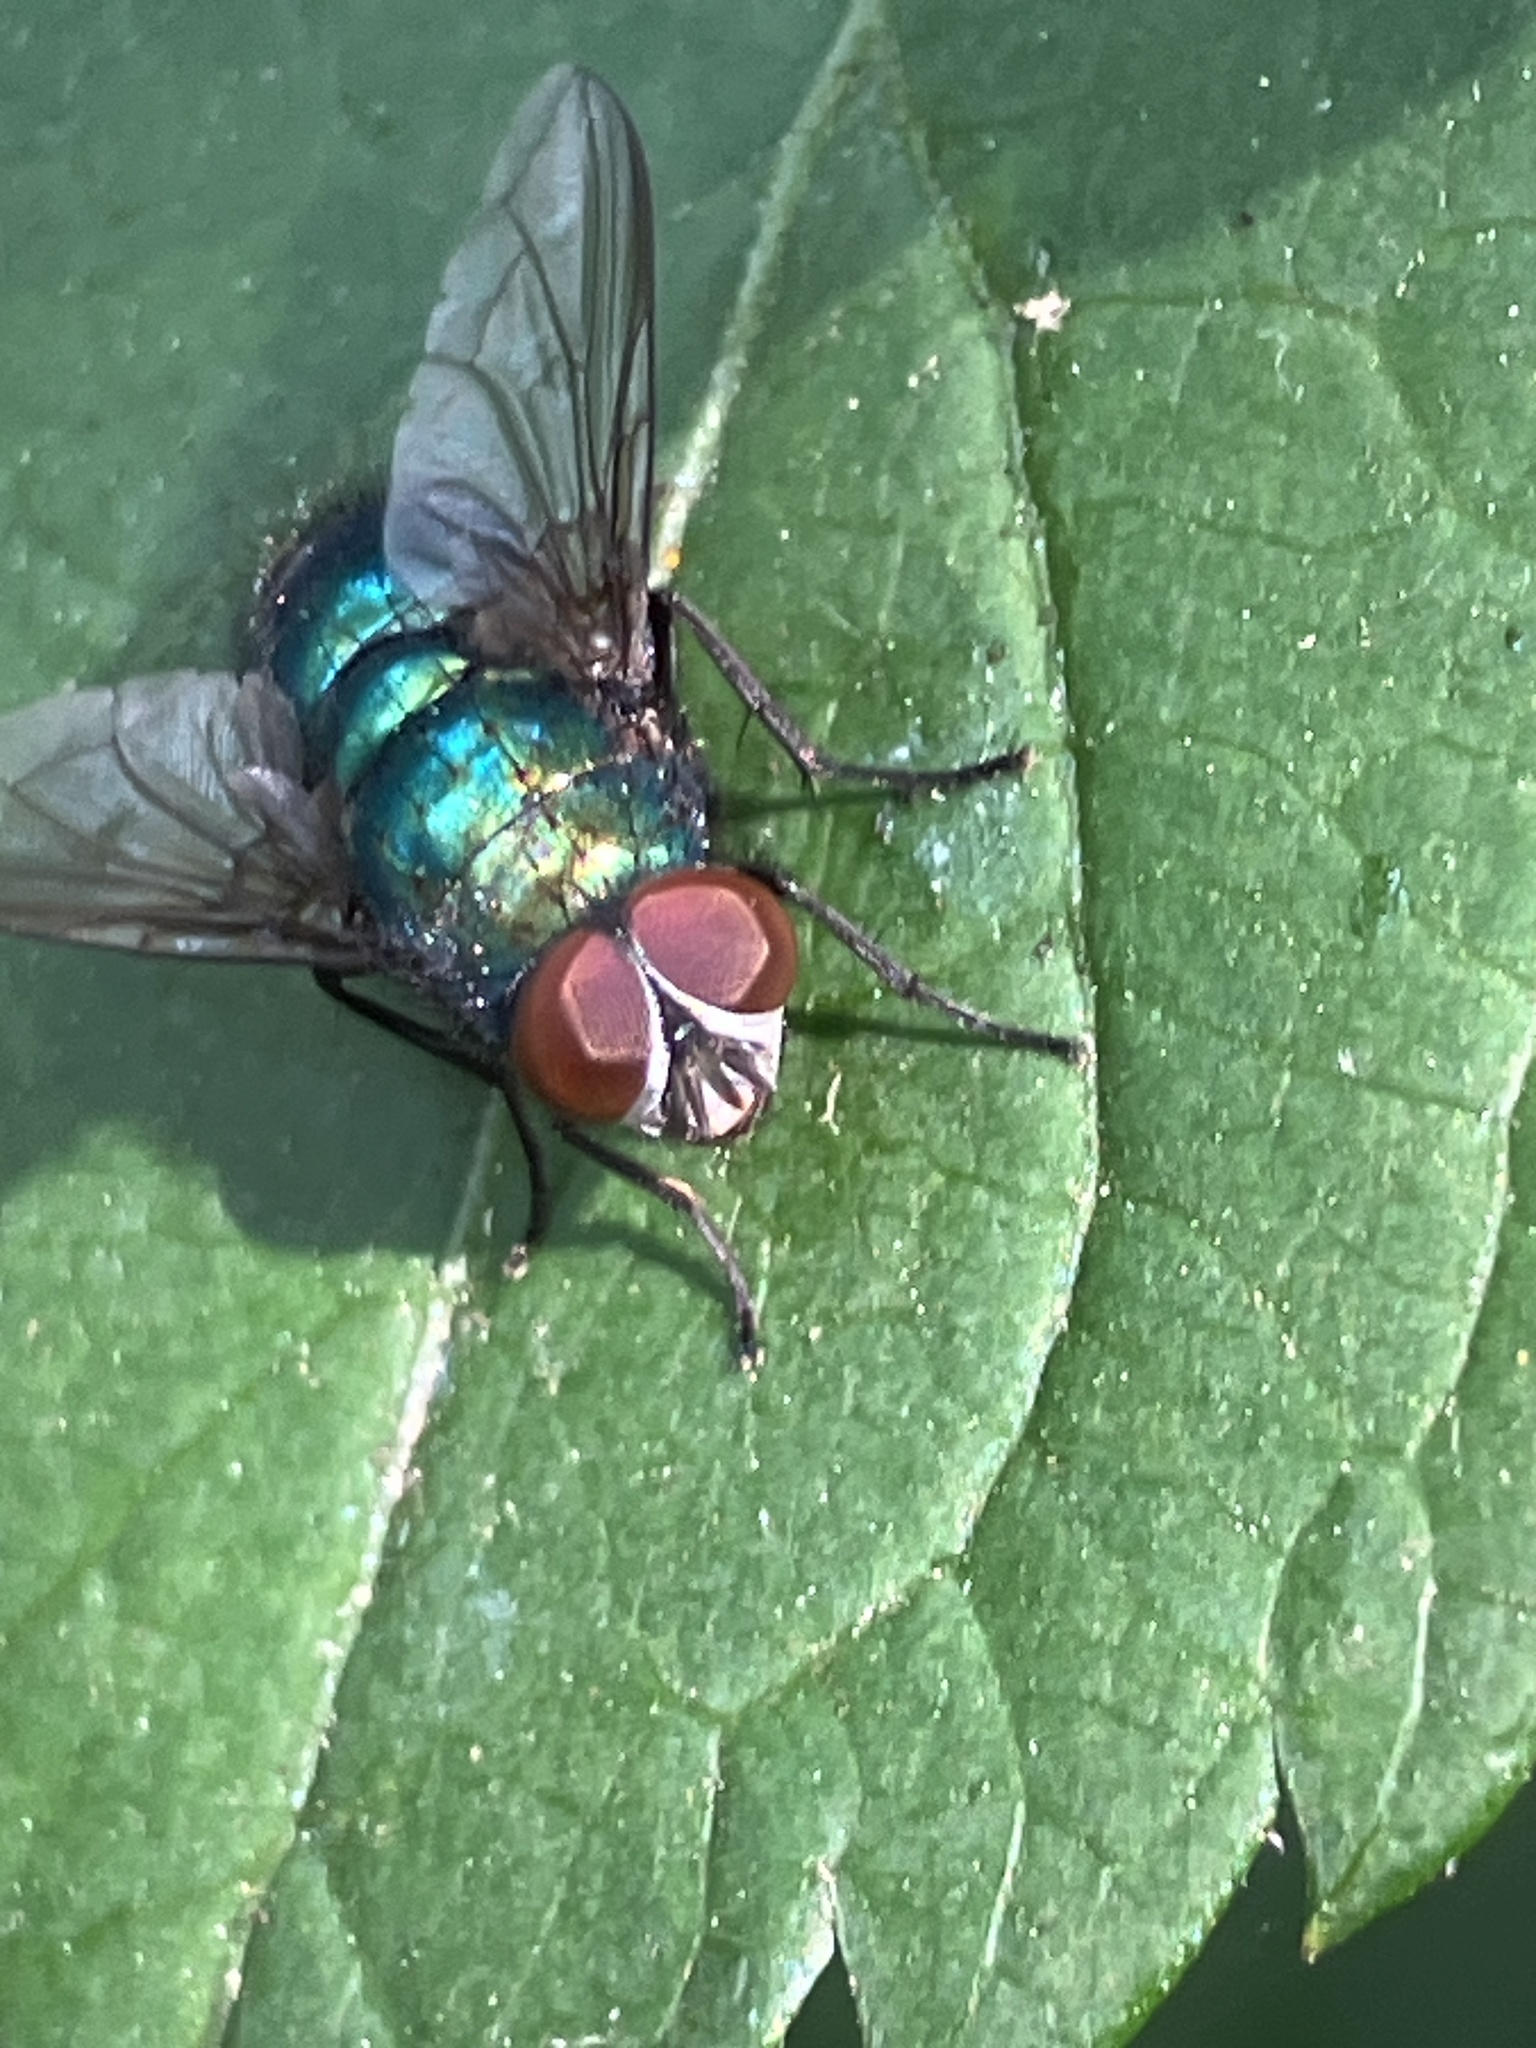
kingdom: Animalia
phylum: Arthropoda
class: Insecta
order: Diptera
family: Calliphoridae
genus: Lucilia
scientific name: Lucilia
